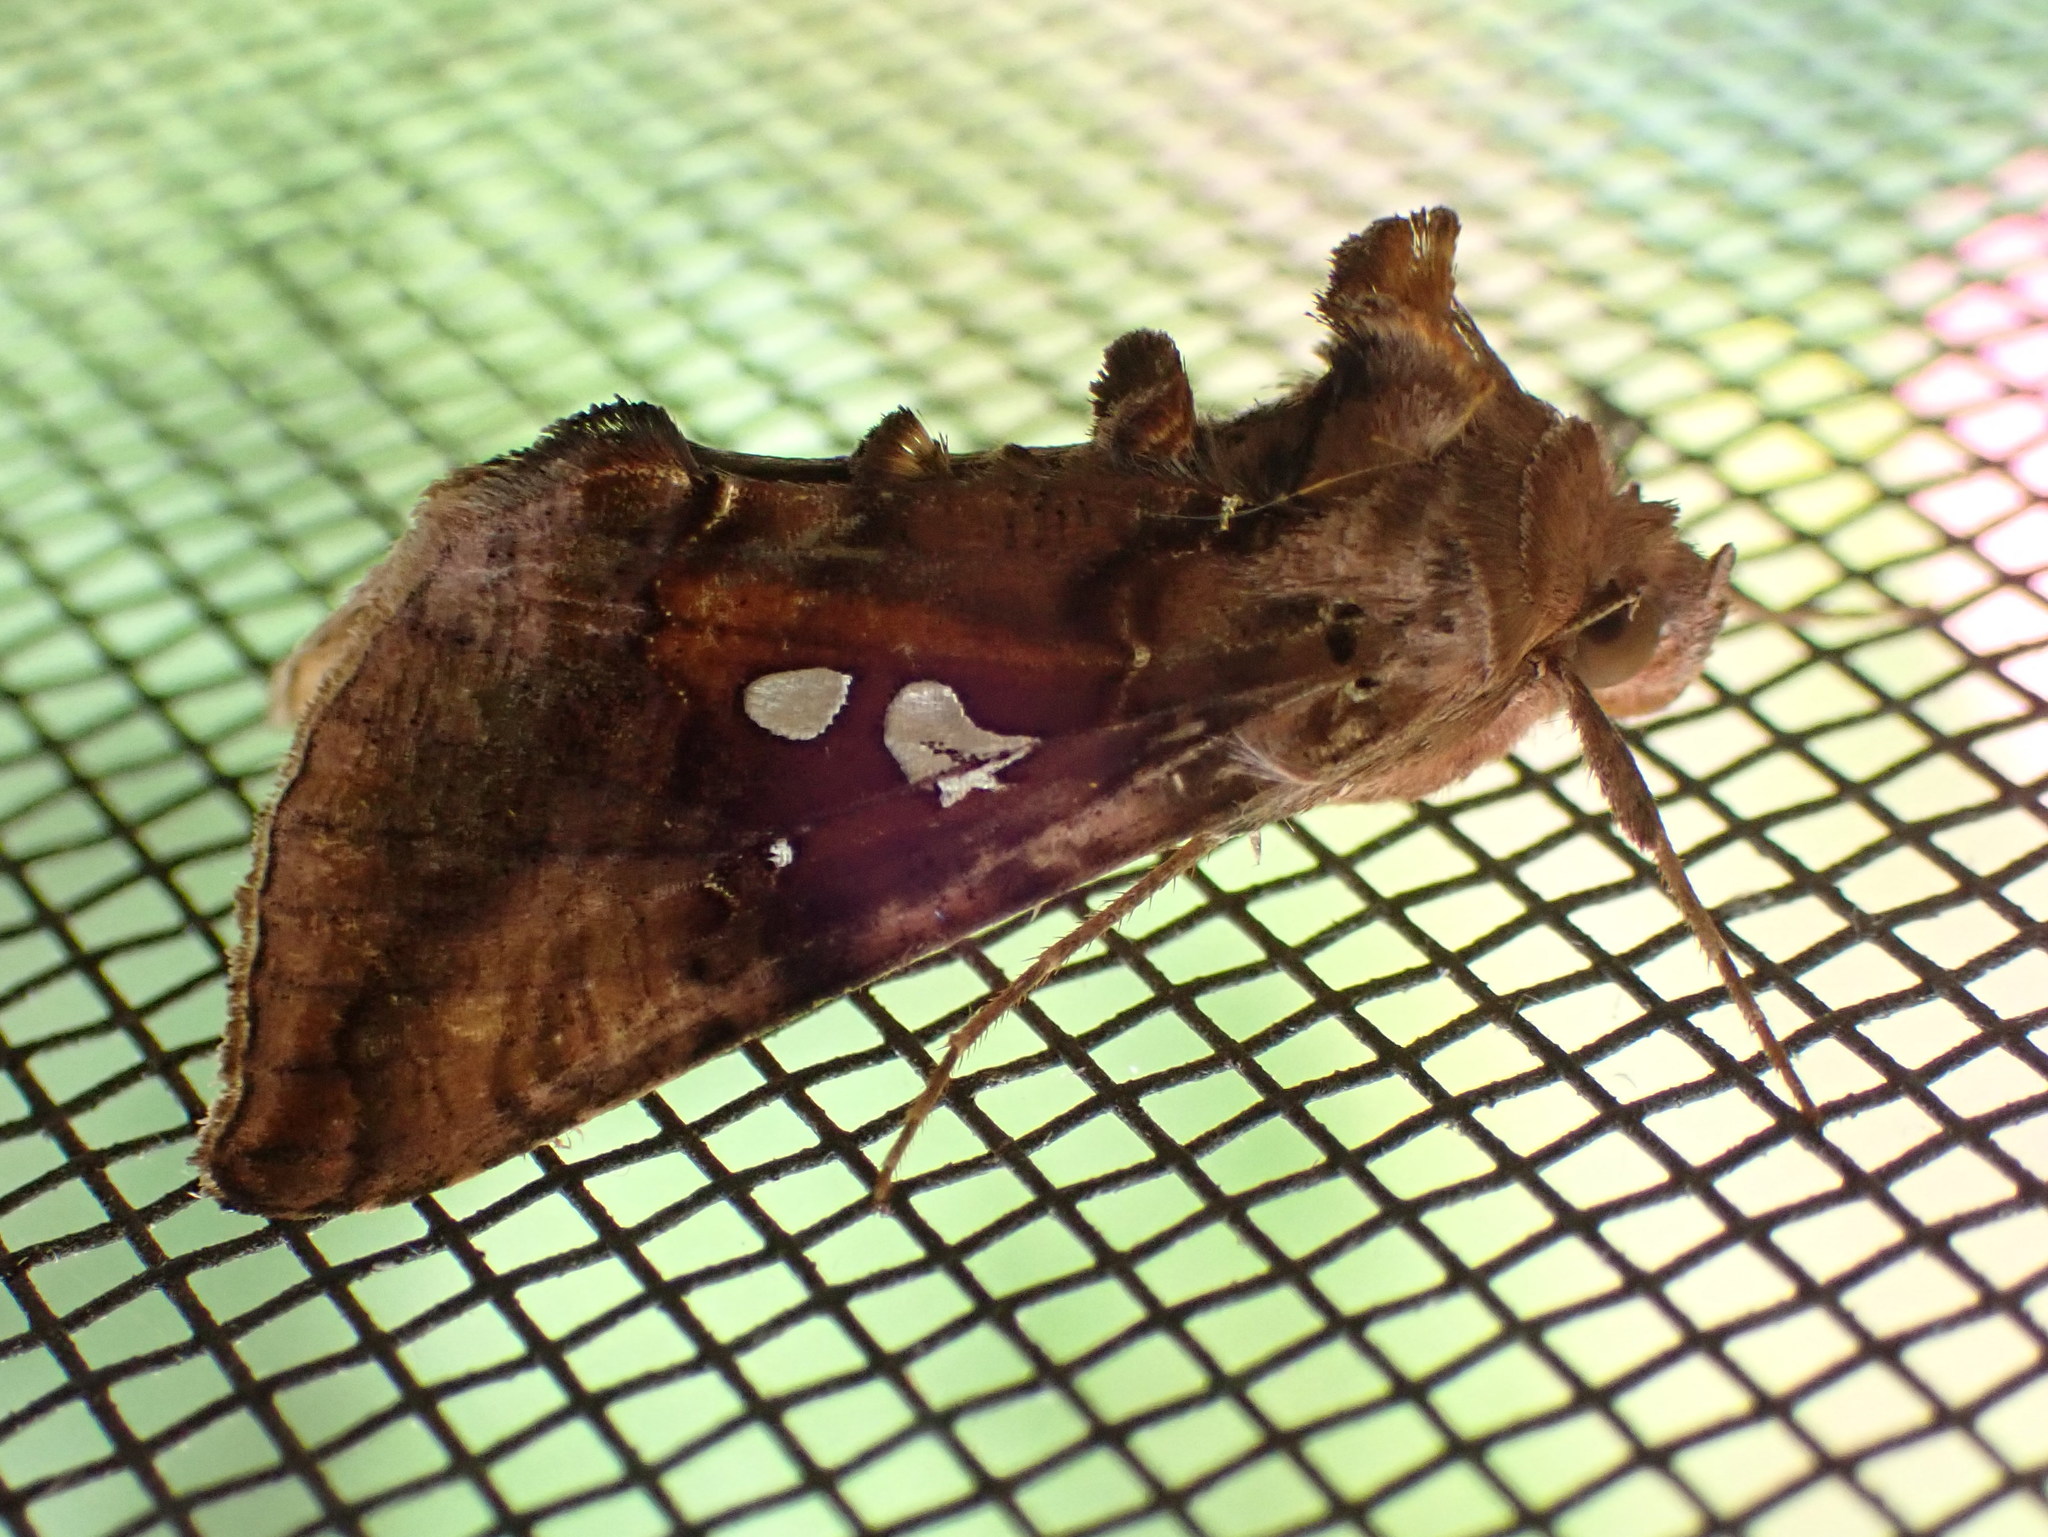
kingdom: Animalia
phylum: Arthropoda
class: Insecta
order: Lepidoptera
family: Noctuidae
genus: Autographa
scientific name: Autographa bimaculata
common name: Double-spotted spangle
